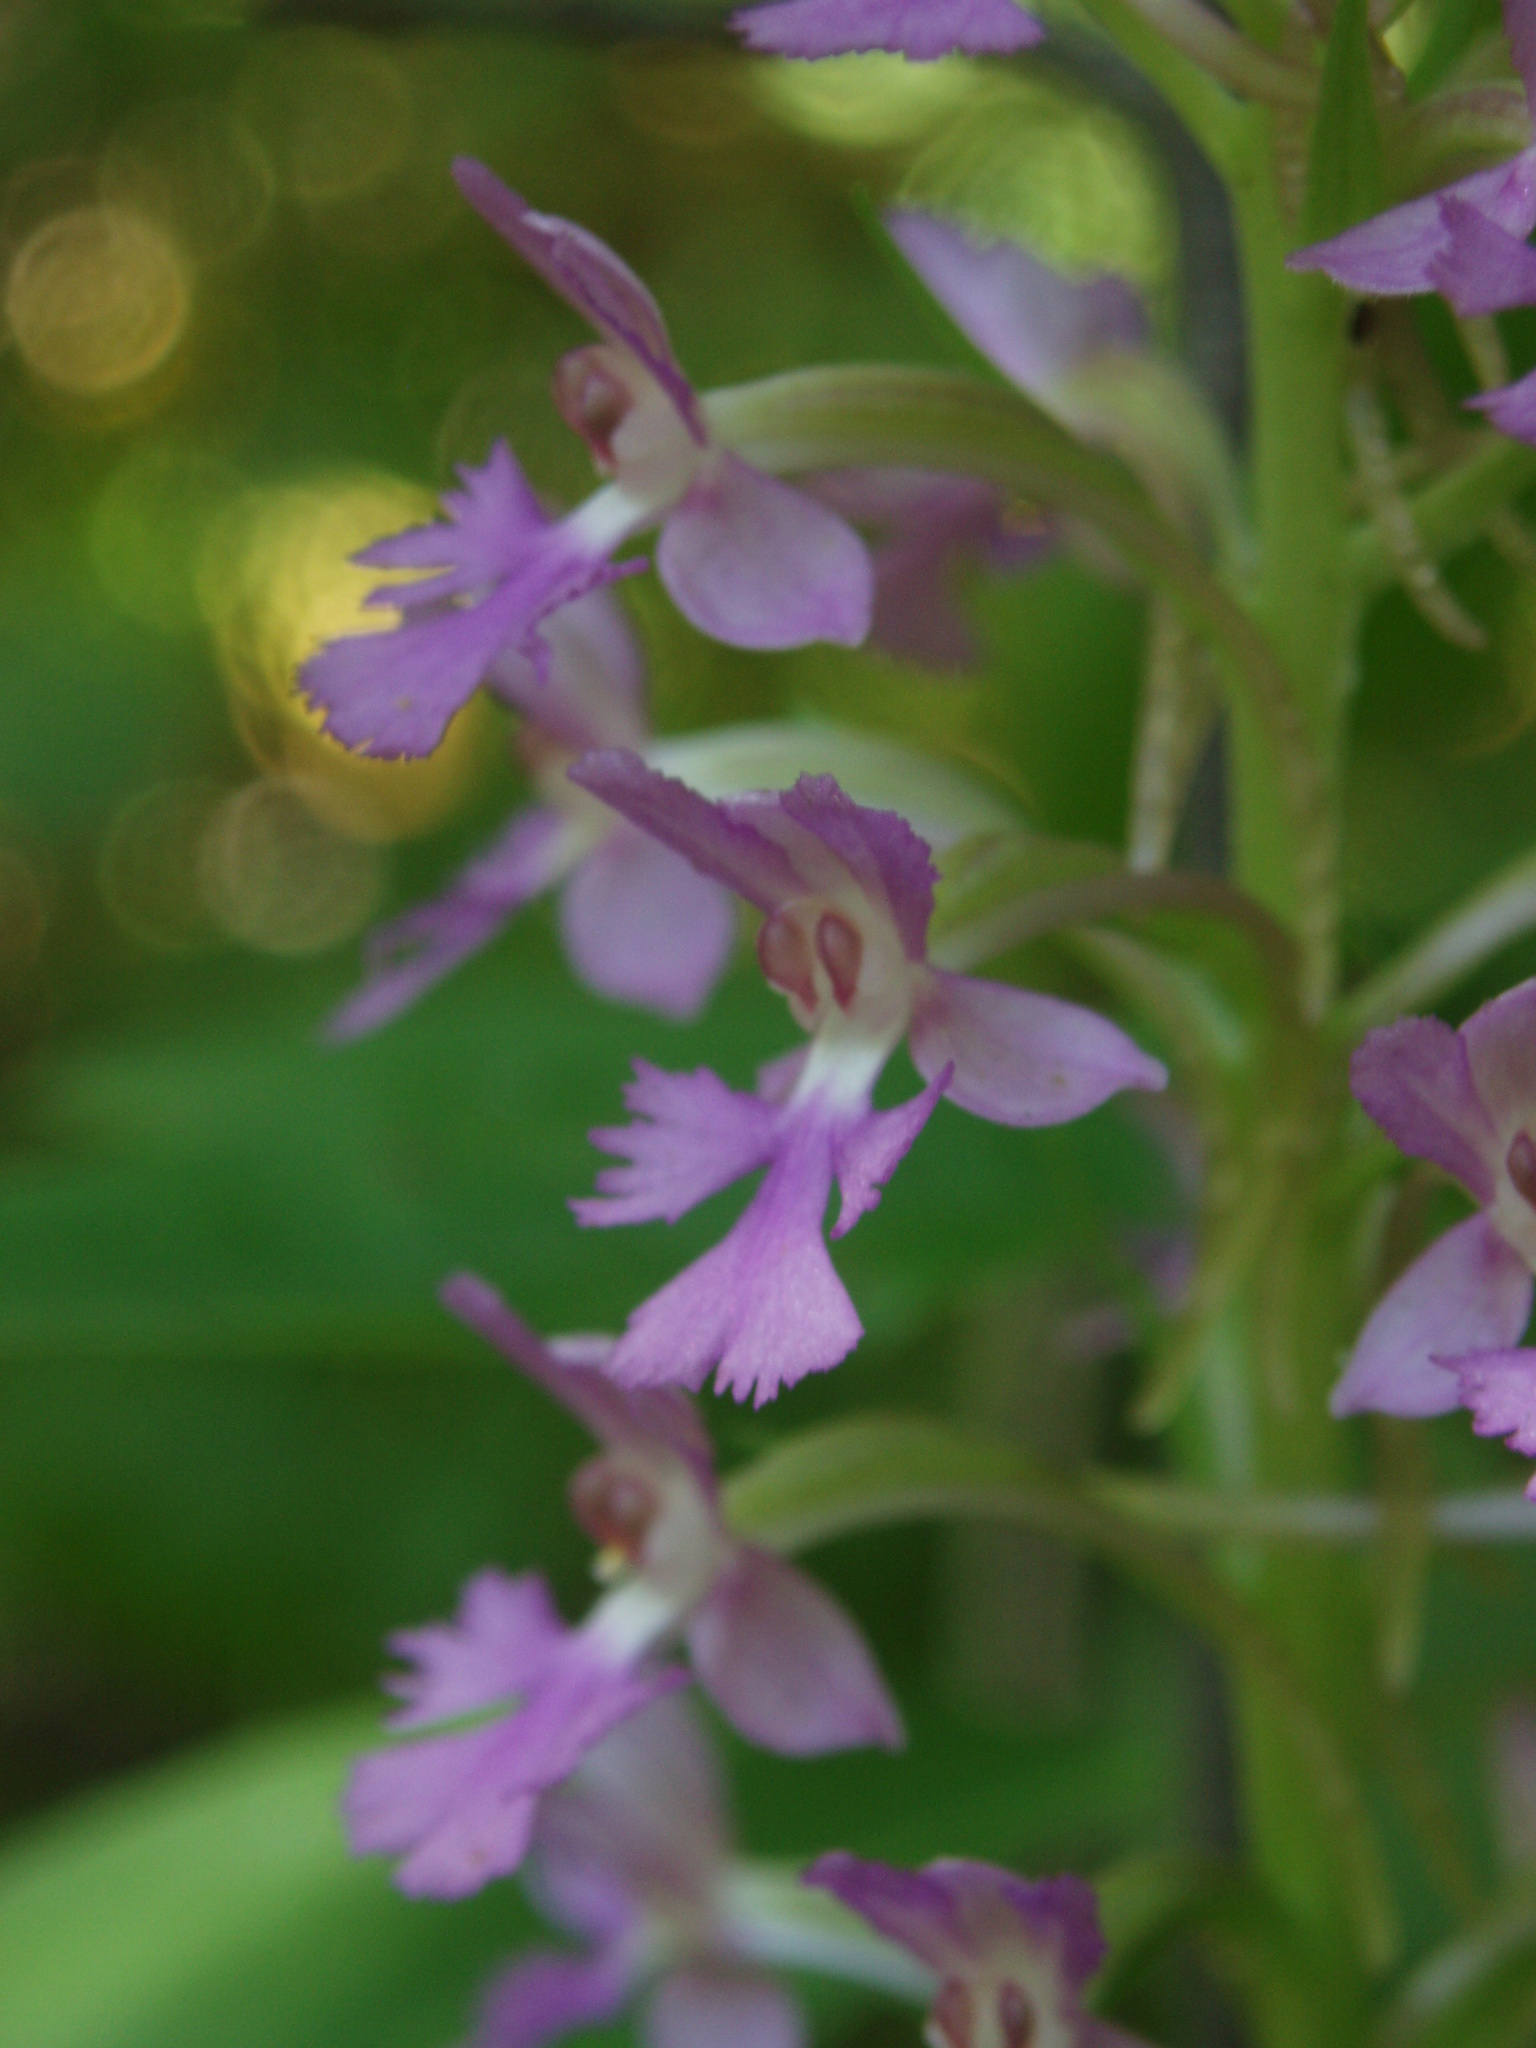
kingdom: Plantae
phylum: Tracheophyta
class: Liliopsida
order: Asparagales
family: Orchidaceae
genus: Platanthera
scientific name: Platanthera psycodes
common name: Lesser purple fringed orchid
